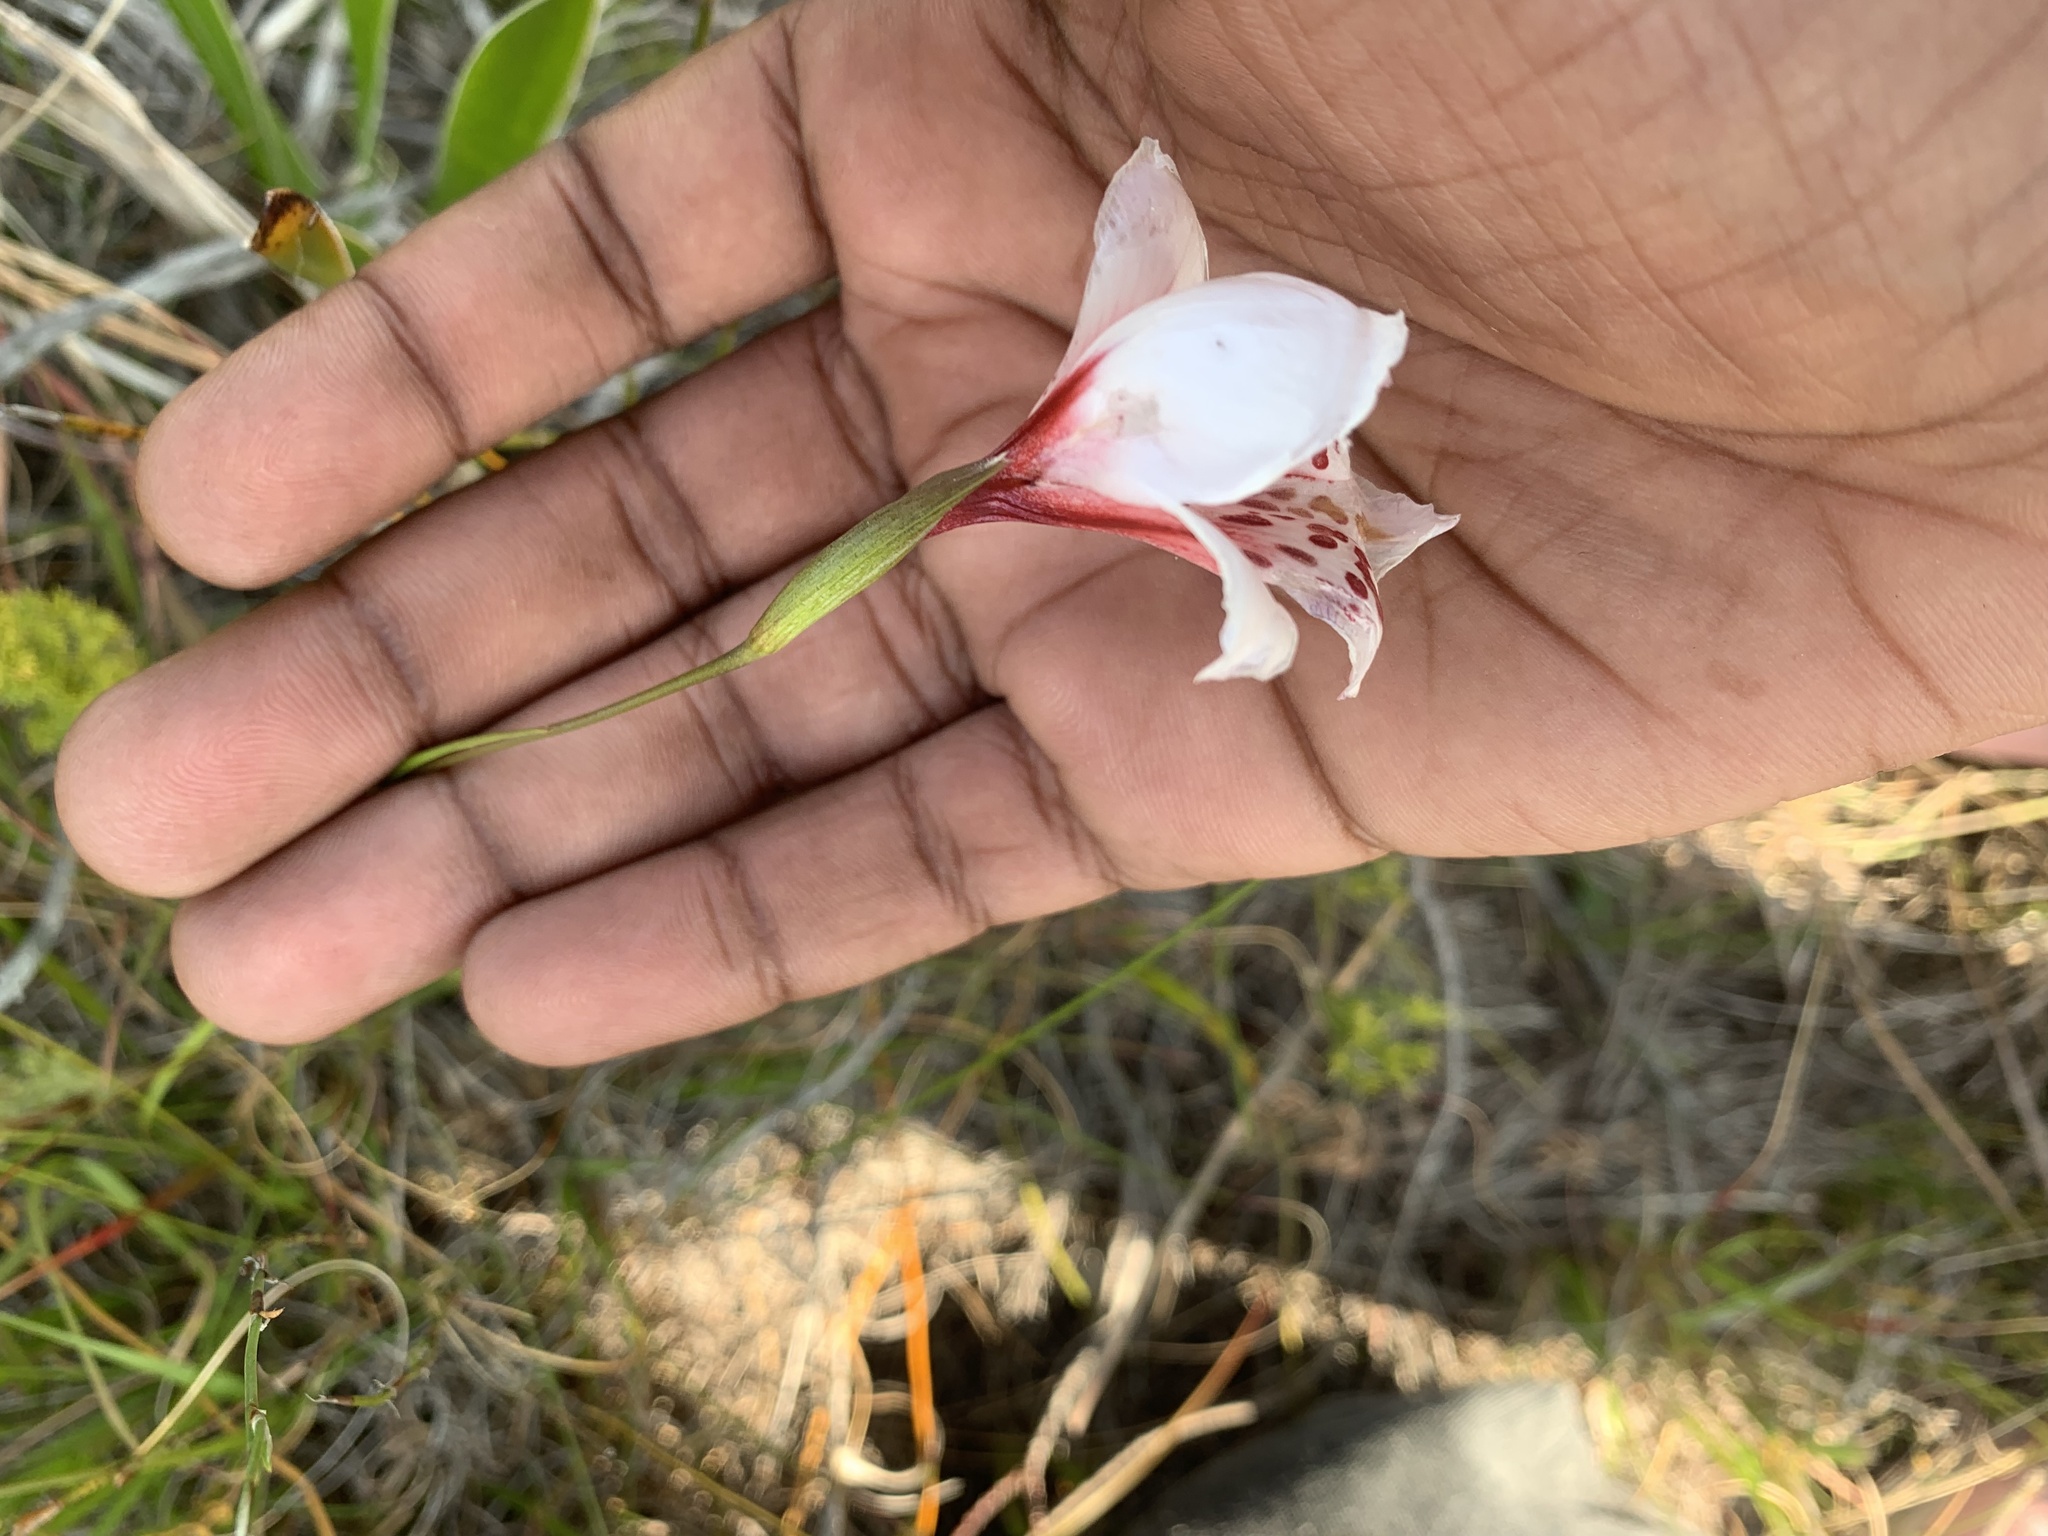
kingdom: Plantae
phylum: Tracheophyta
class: Liliopsida
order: Asparagales
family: Iridaceae
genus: Gladiolus
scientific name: Gladiolus variegatus
